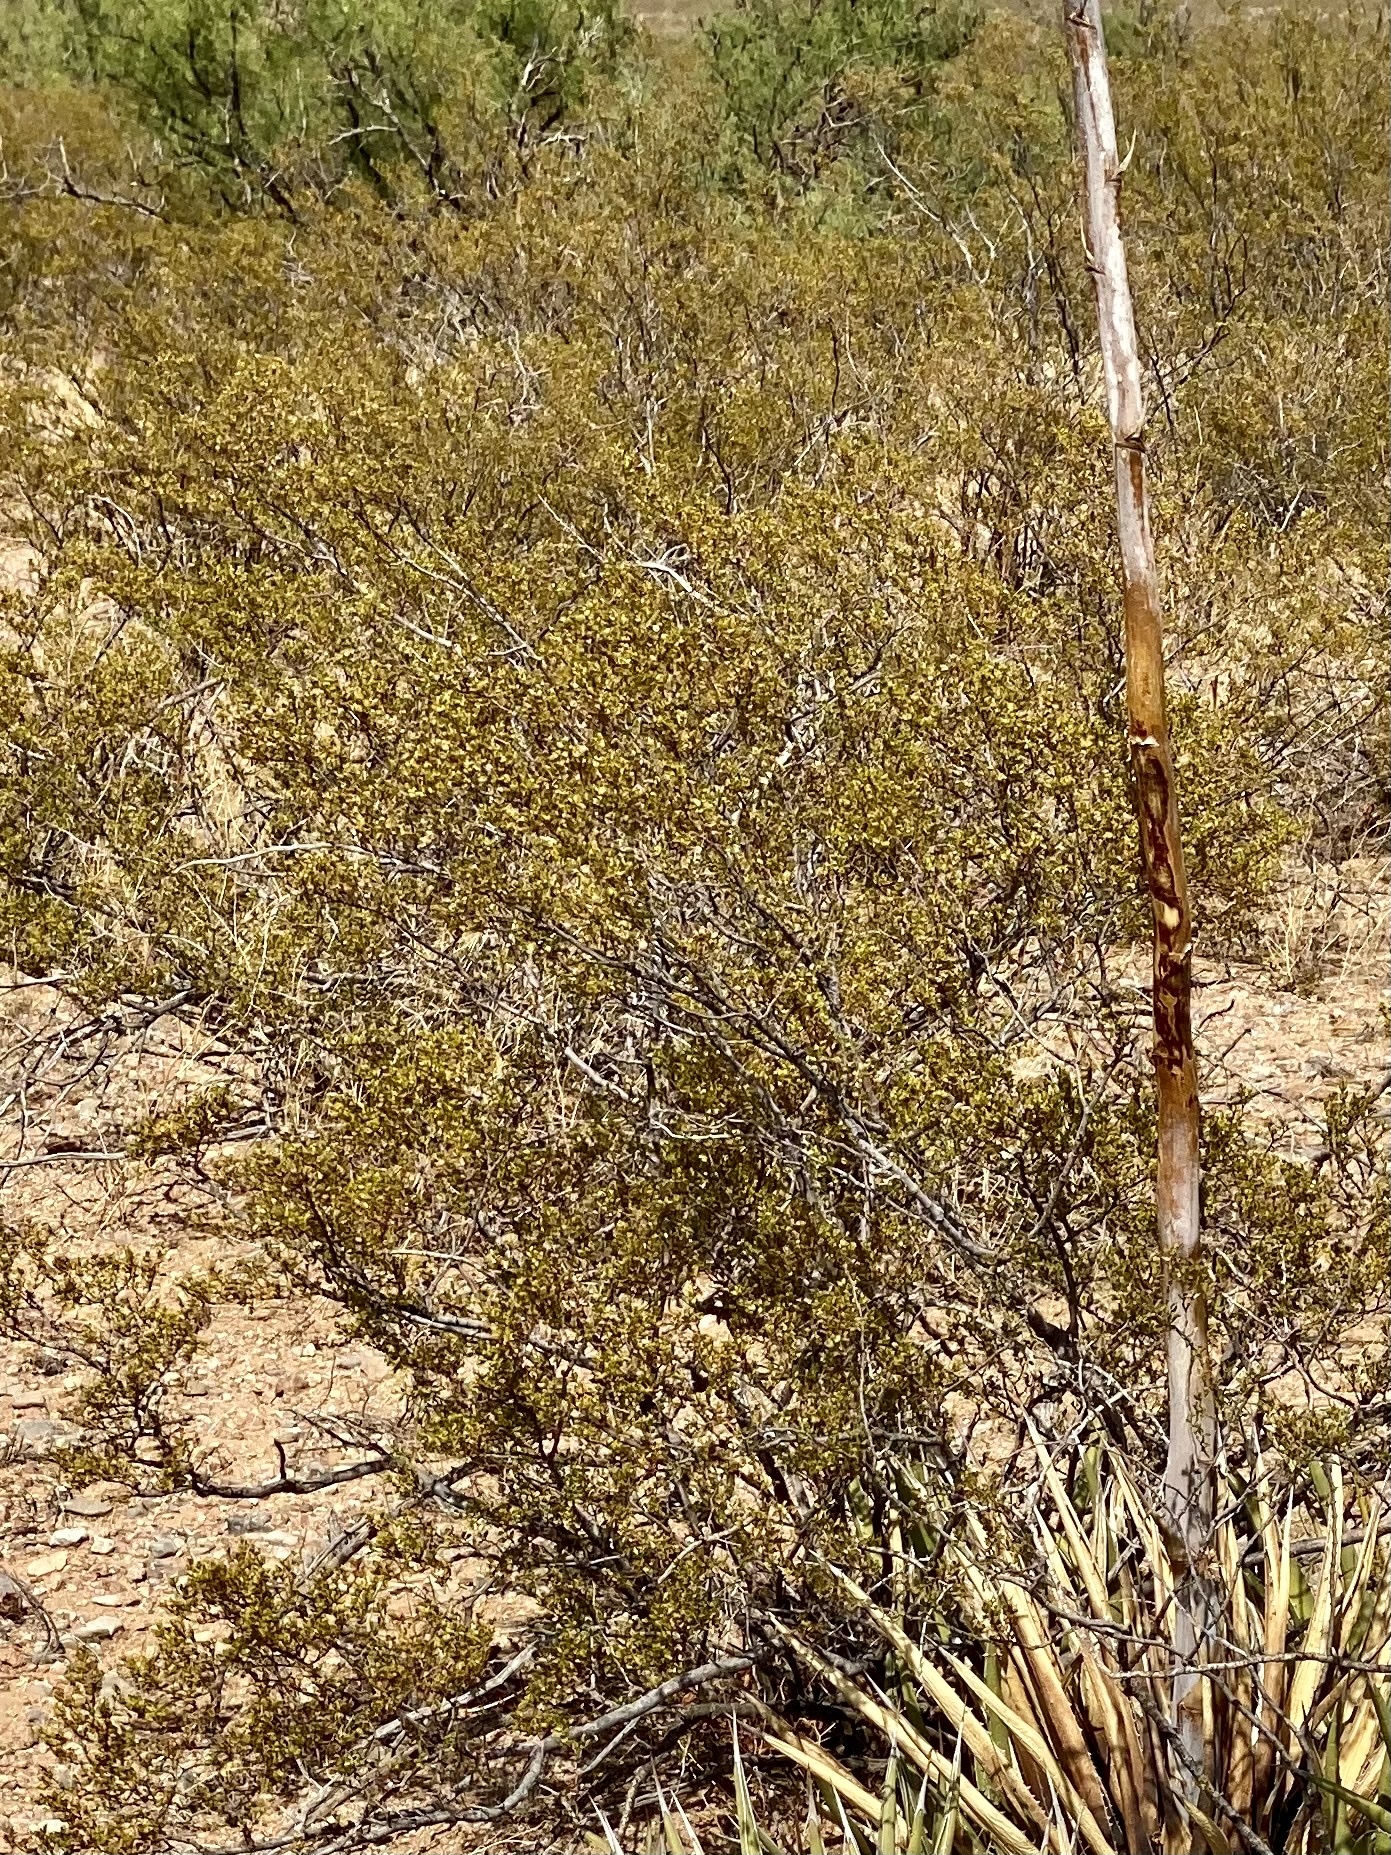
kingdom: Plantae
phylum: Tracheophyta
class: Magnoliopsida
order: Zygophyllales
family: Zygophyllaceae
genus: Larrea
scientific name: Larrea tridentata
